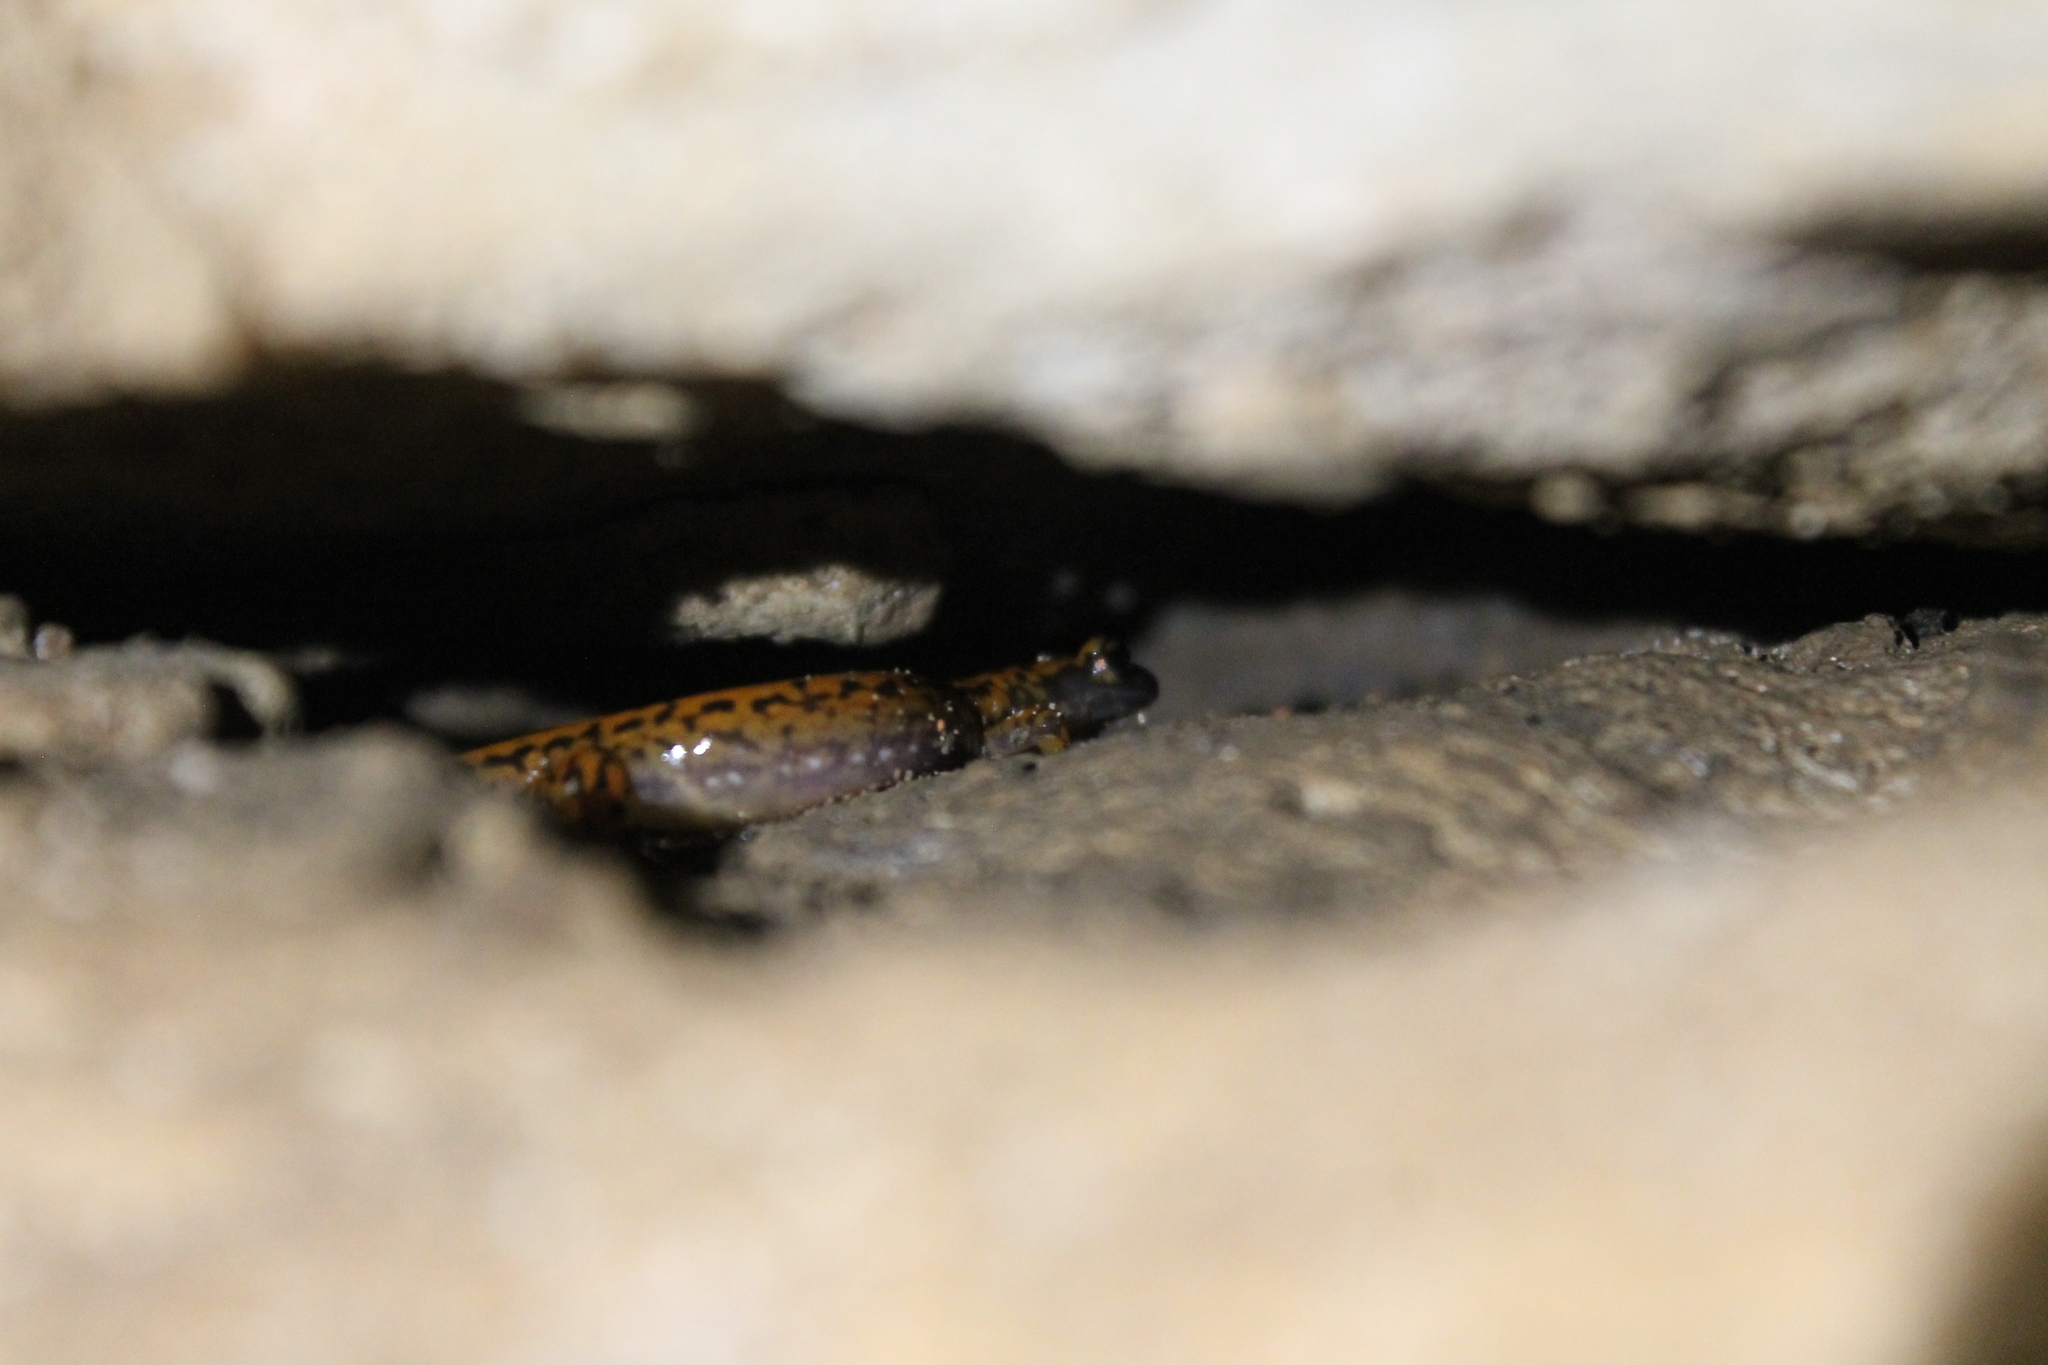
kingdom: Animalia
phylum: Chordata
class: Amphibia
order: Caudata
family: Plethodontidae
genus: Eurycea
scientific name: Eurycea lucifuga
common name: Cave salamander
